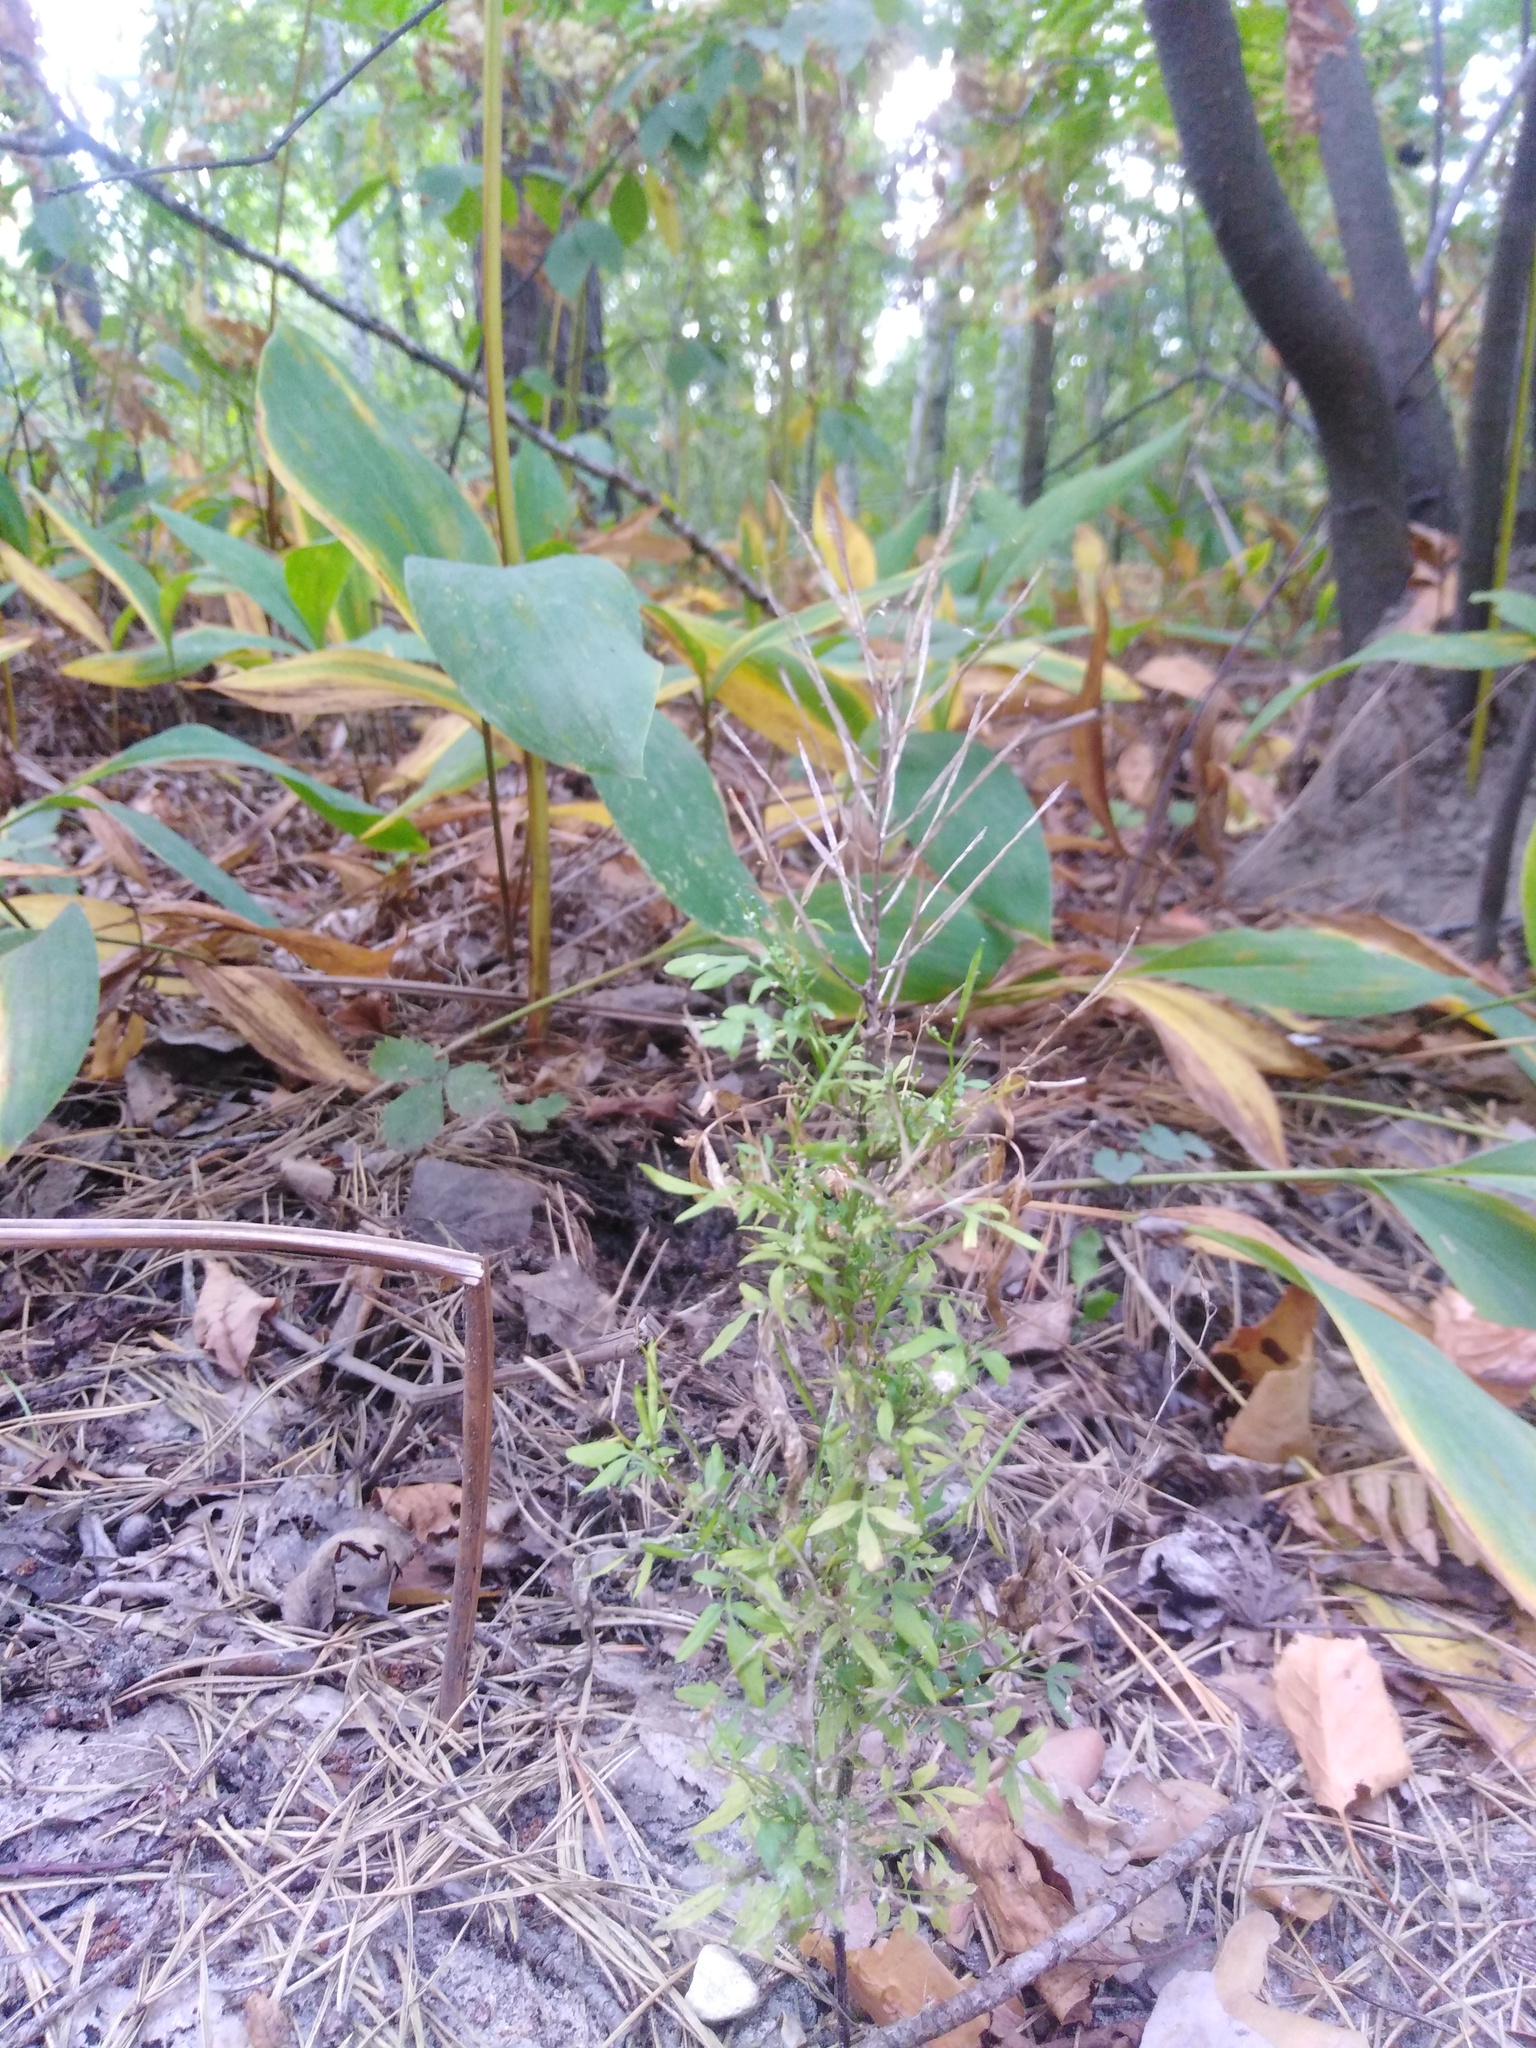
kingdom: Plantae
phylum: Tracheophyta
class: Magnoliopsida
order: Brassicales
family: Brassicaceae
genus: Cardamine
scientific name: Cardamine impatiens
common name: Narrow-leaved bitter-cress
